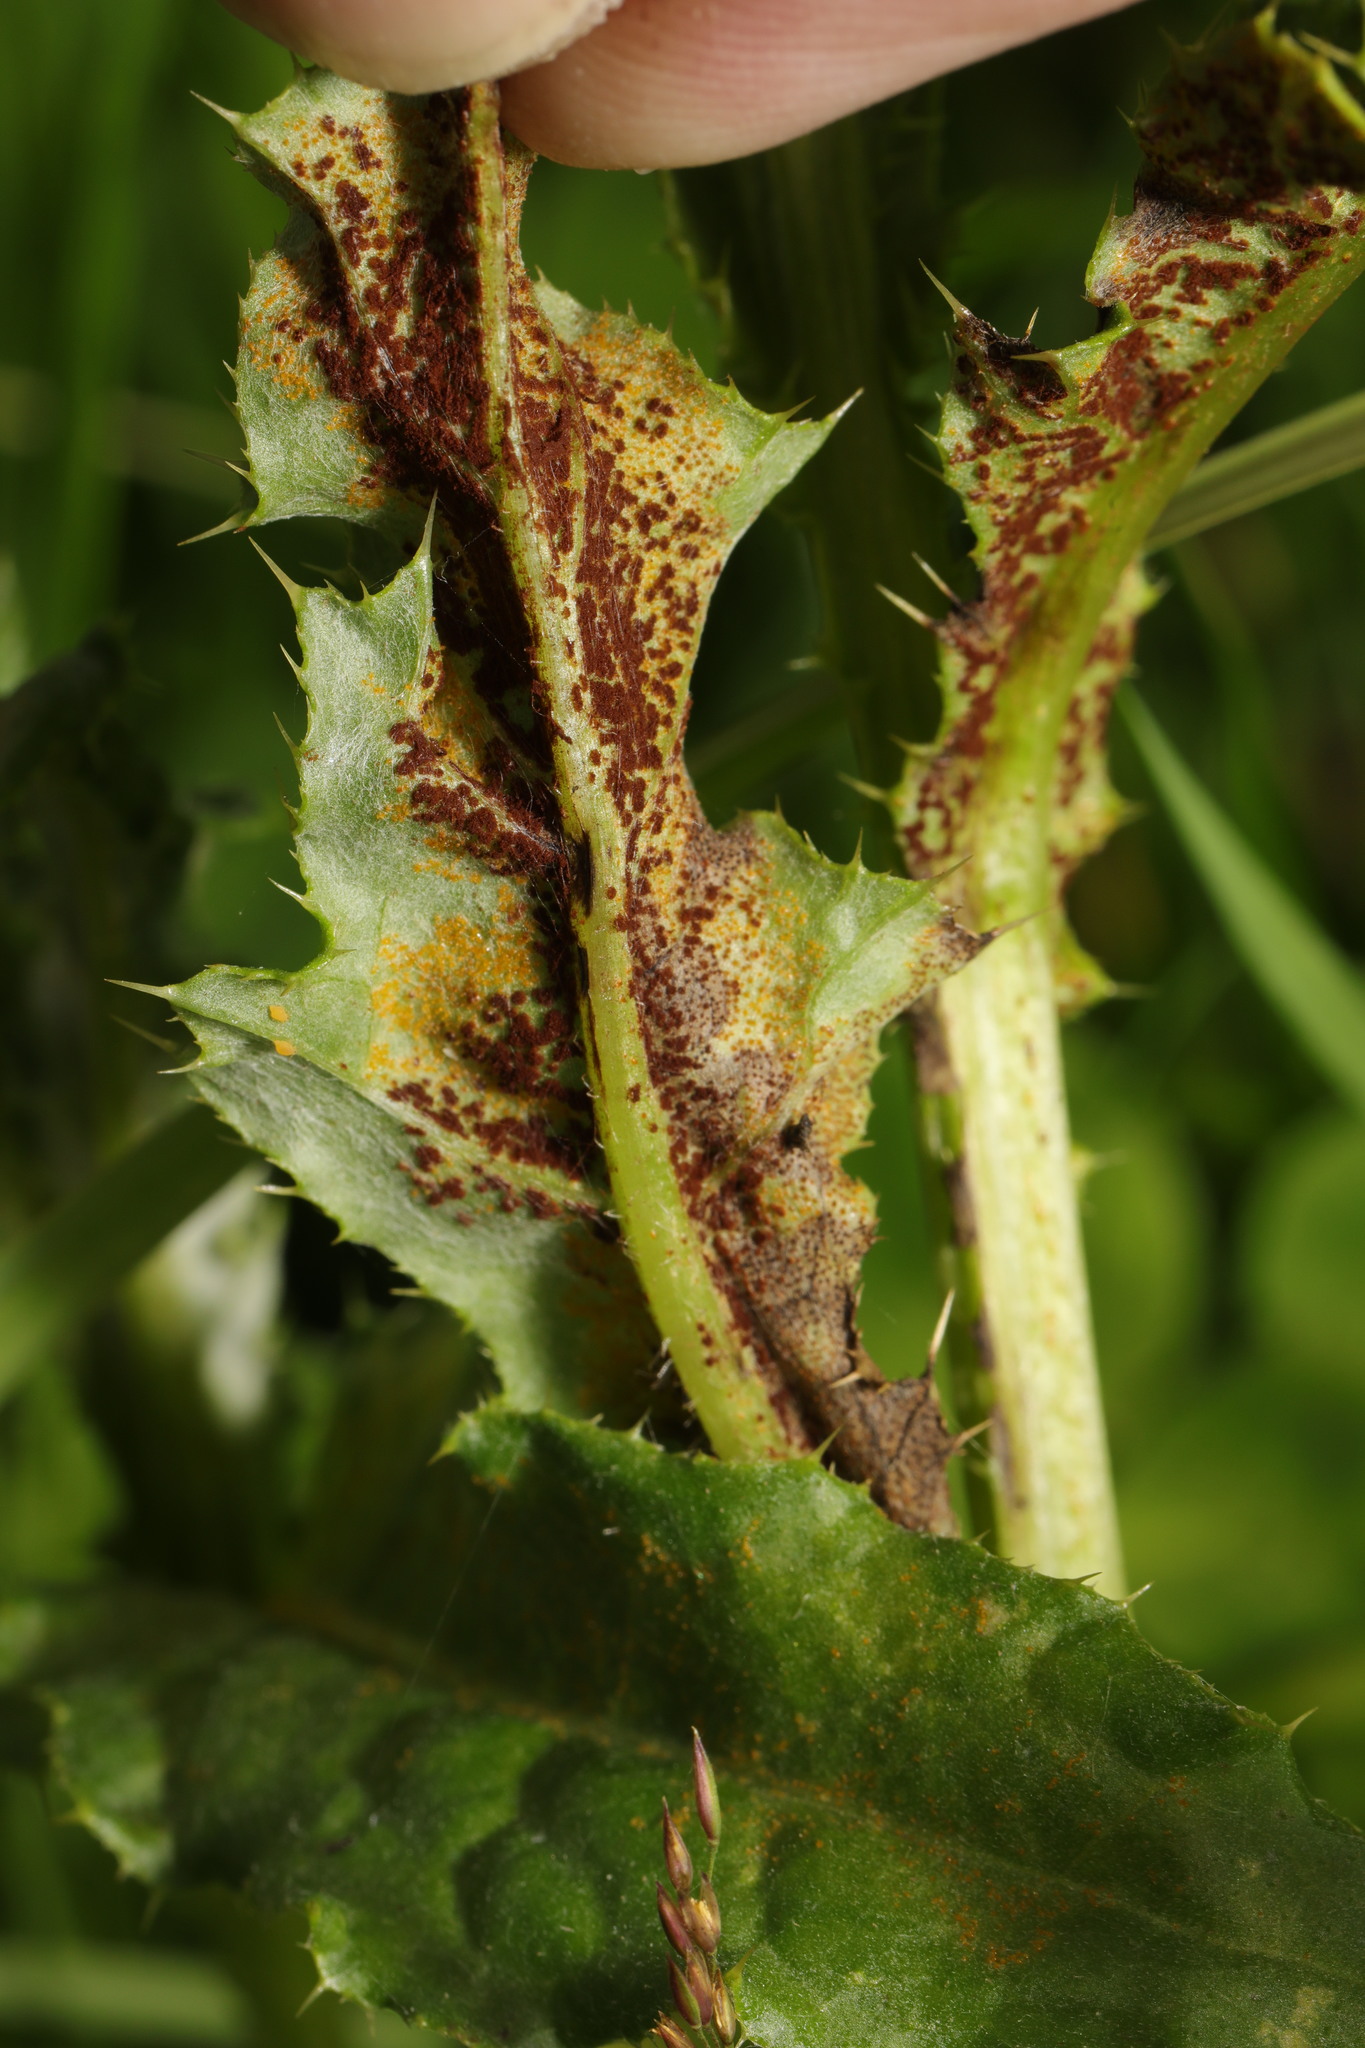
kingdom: Fungi
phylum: Basidiomycota
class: Pucciniomycetes
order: Pucciniales
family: Pucciniaceae
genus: Puccinia
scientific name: Puccinia suaveolens
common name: Thistle rust
